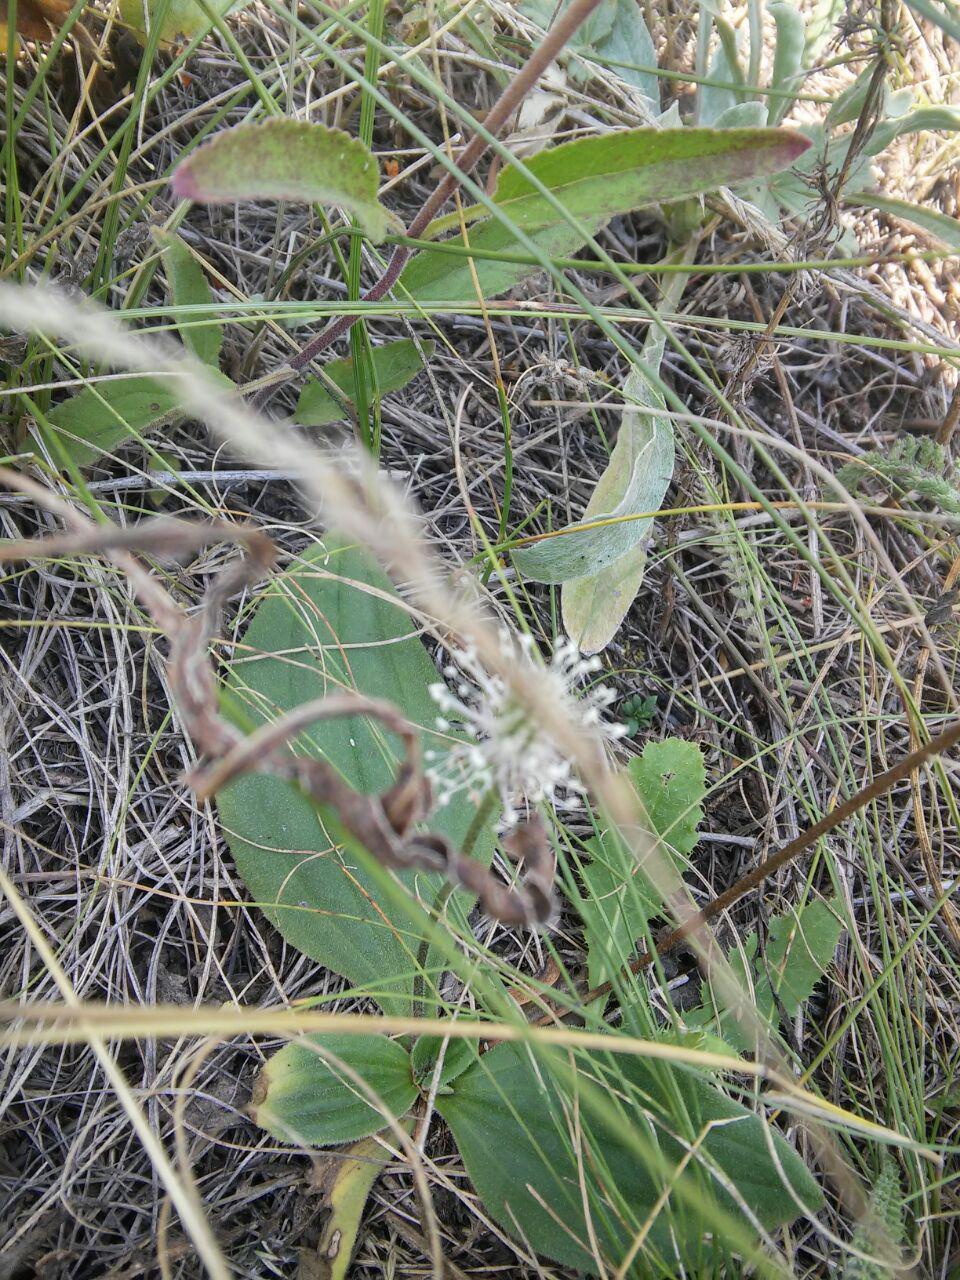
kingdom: Plantae
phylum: Tracheophyta
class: Magnoliopsida
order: Lamiales
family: Plantaginaceae
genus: Plantago
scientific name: Plantago media
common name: Hoary plantain
